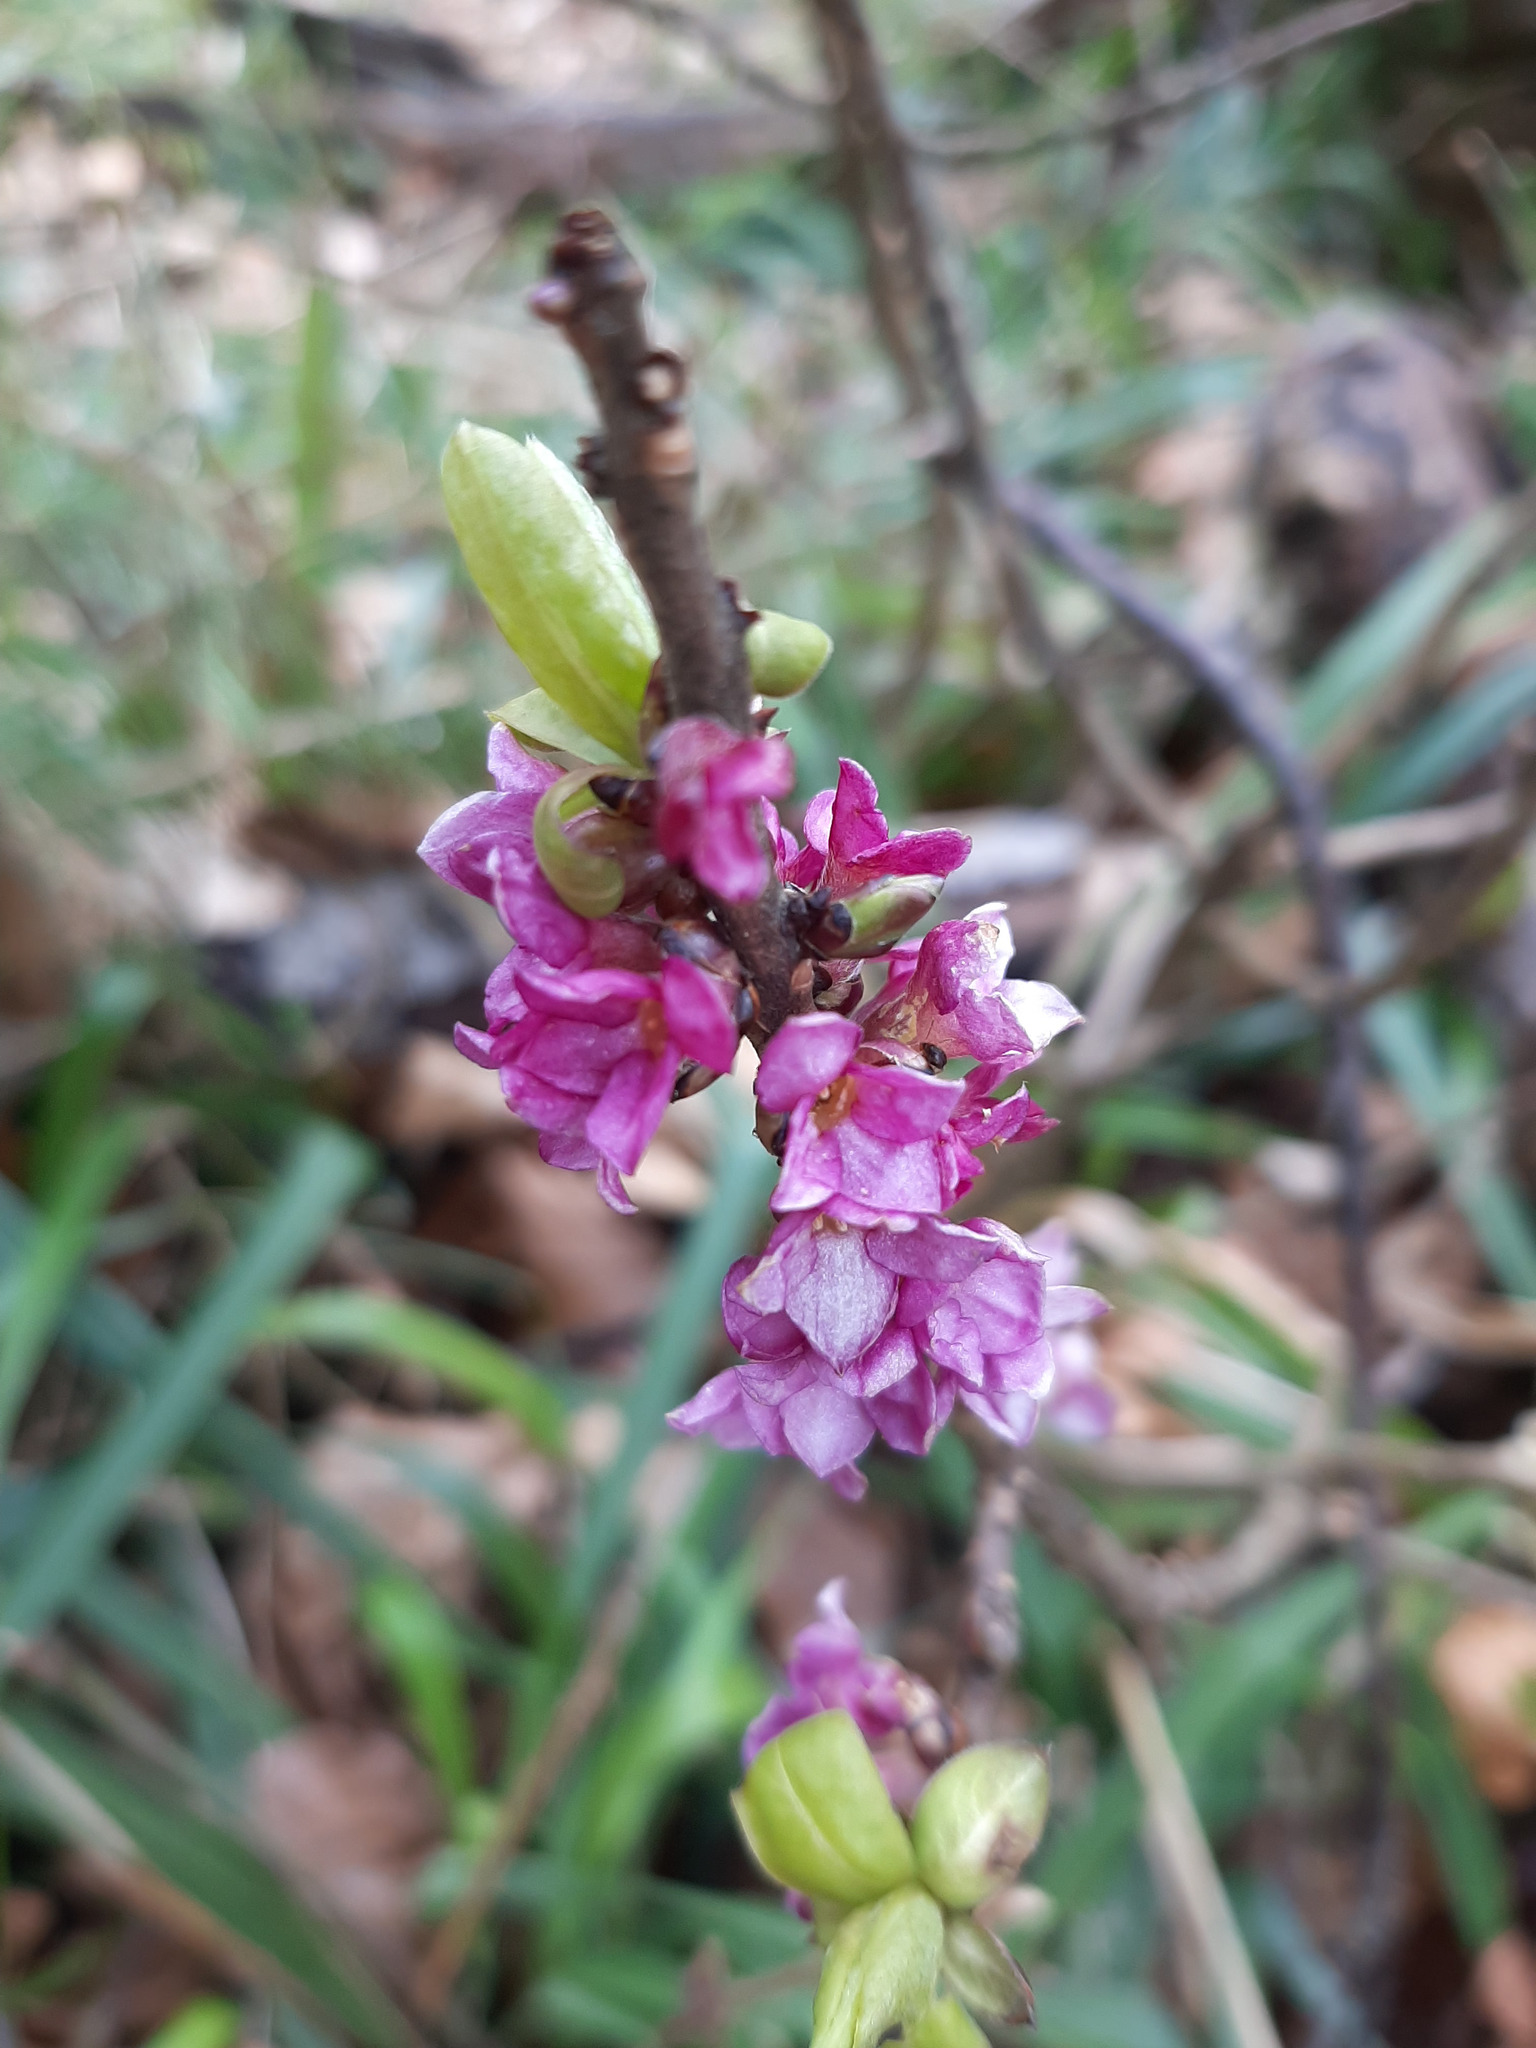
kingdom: Plantae
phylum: Tracheophyta
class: Magnoliopsida
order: Malvales
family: Thymelaeaceae
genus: Daphne
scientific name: Daphne mezereum
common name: Mezereon
